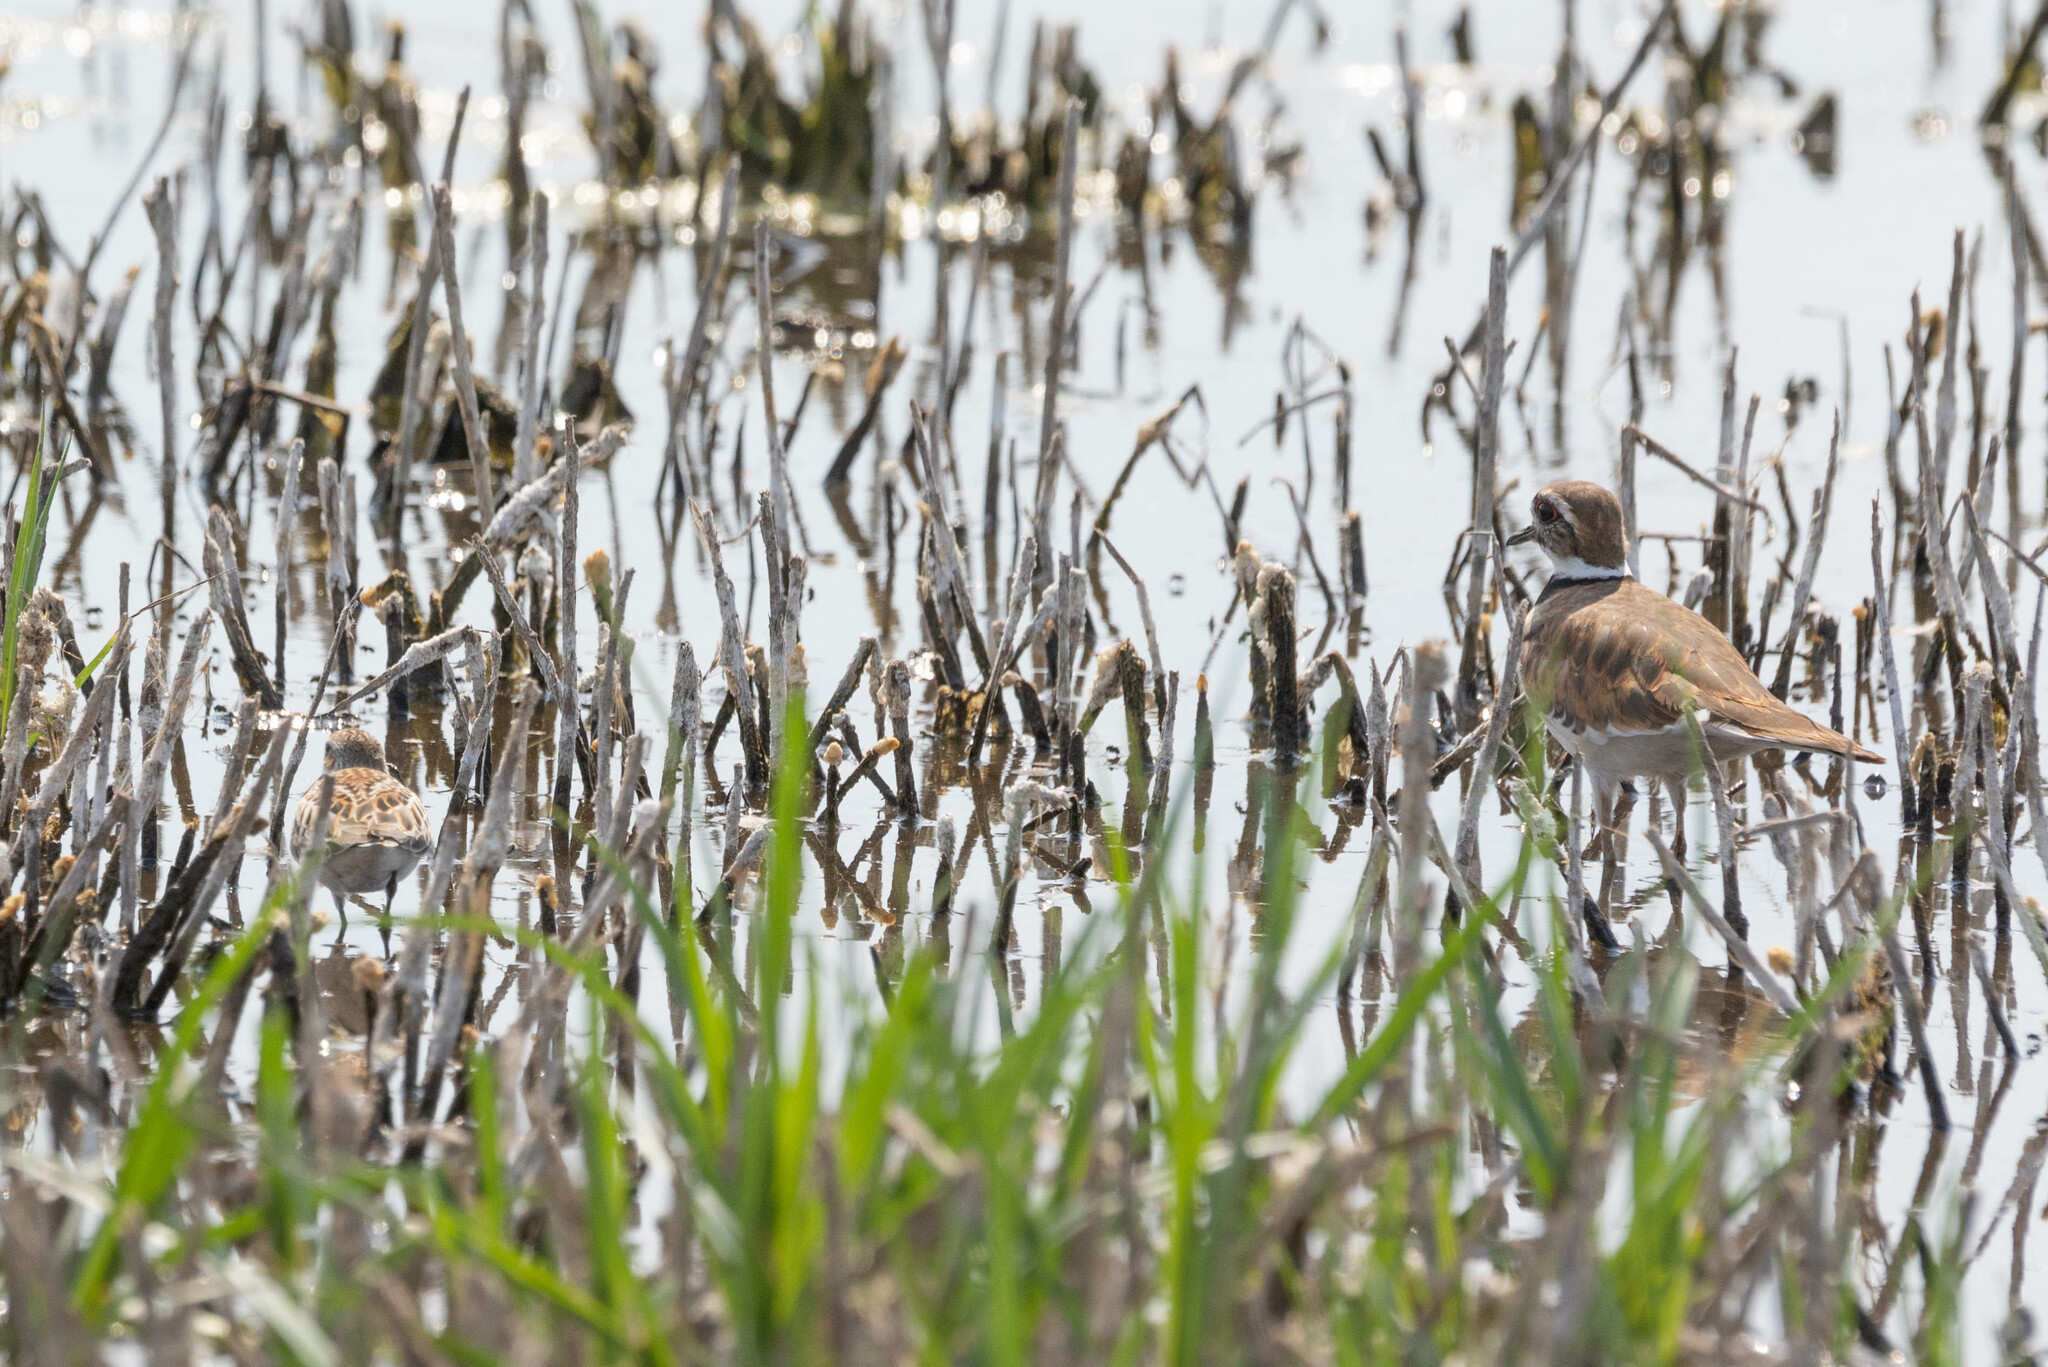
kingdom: Animalia
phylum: Chordata
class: Aves
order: Charadriiformes
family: Charadriidae
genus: Charadrius
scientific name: Charadrius vociferus
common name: Killdeer
